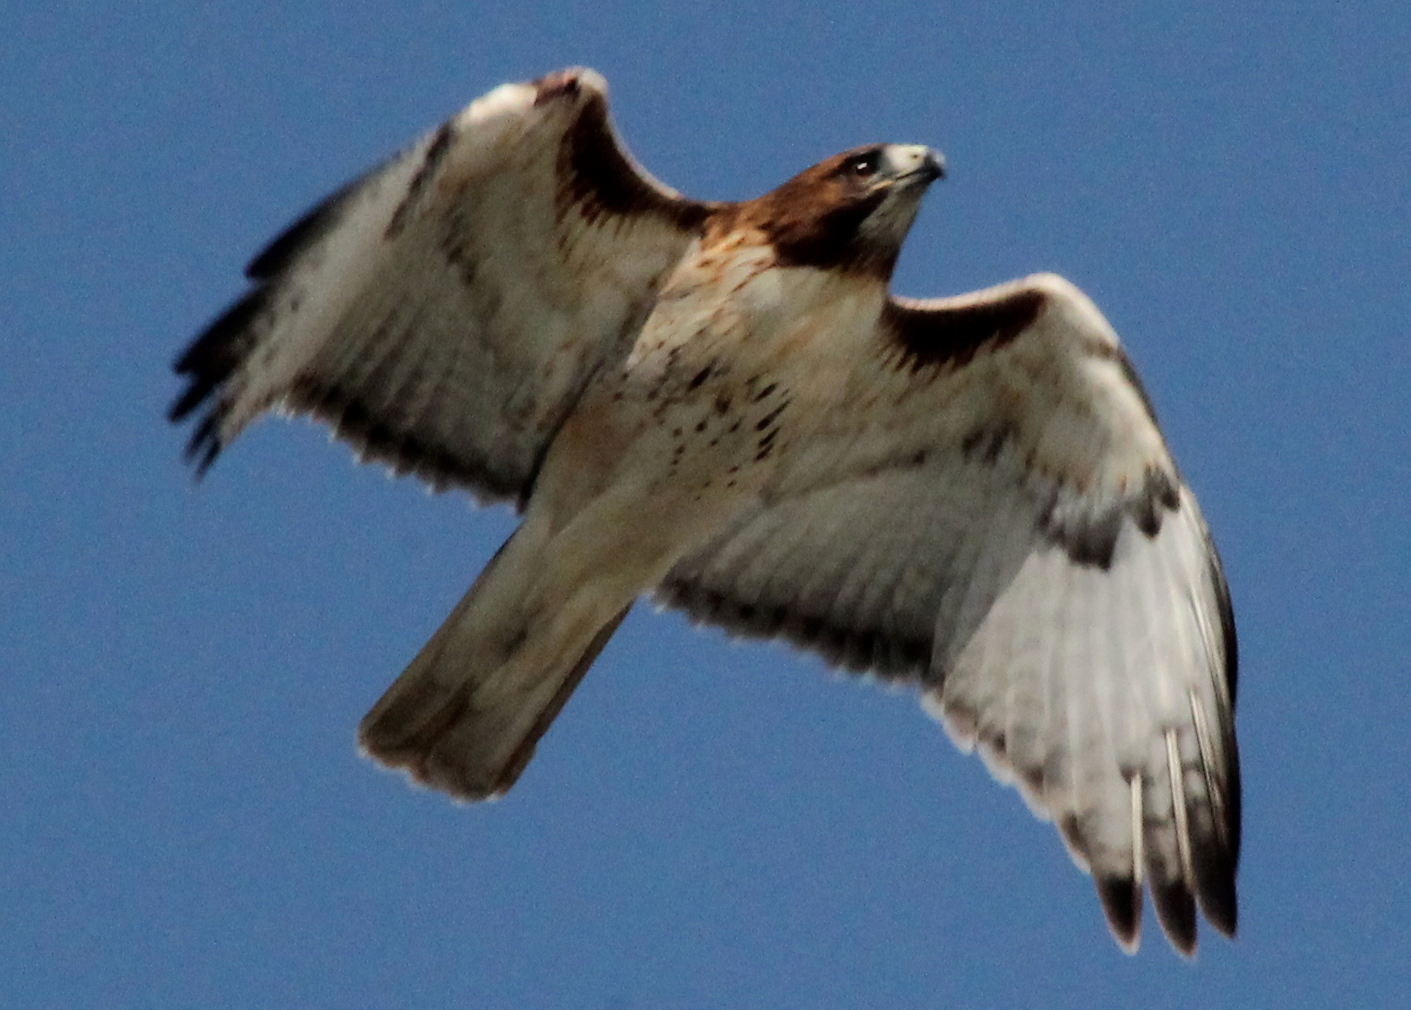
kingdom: Animalia
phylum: Chordata
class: Aves
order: Accipitriformes
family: Accipitridae
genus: Buteo
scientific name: Buteo jamaicensis
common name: Red-tailed hawk
